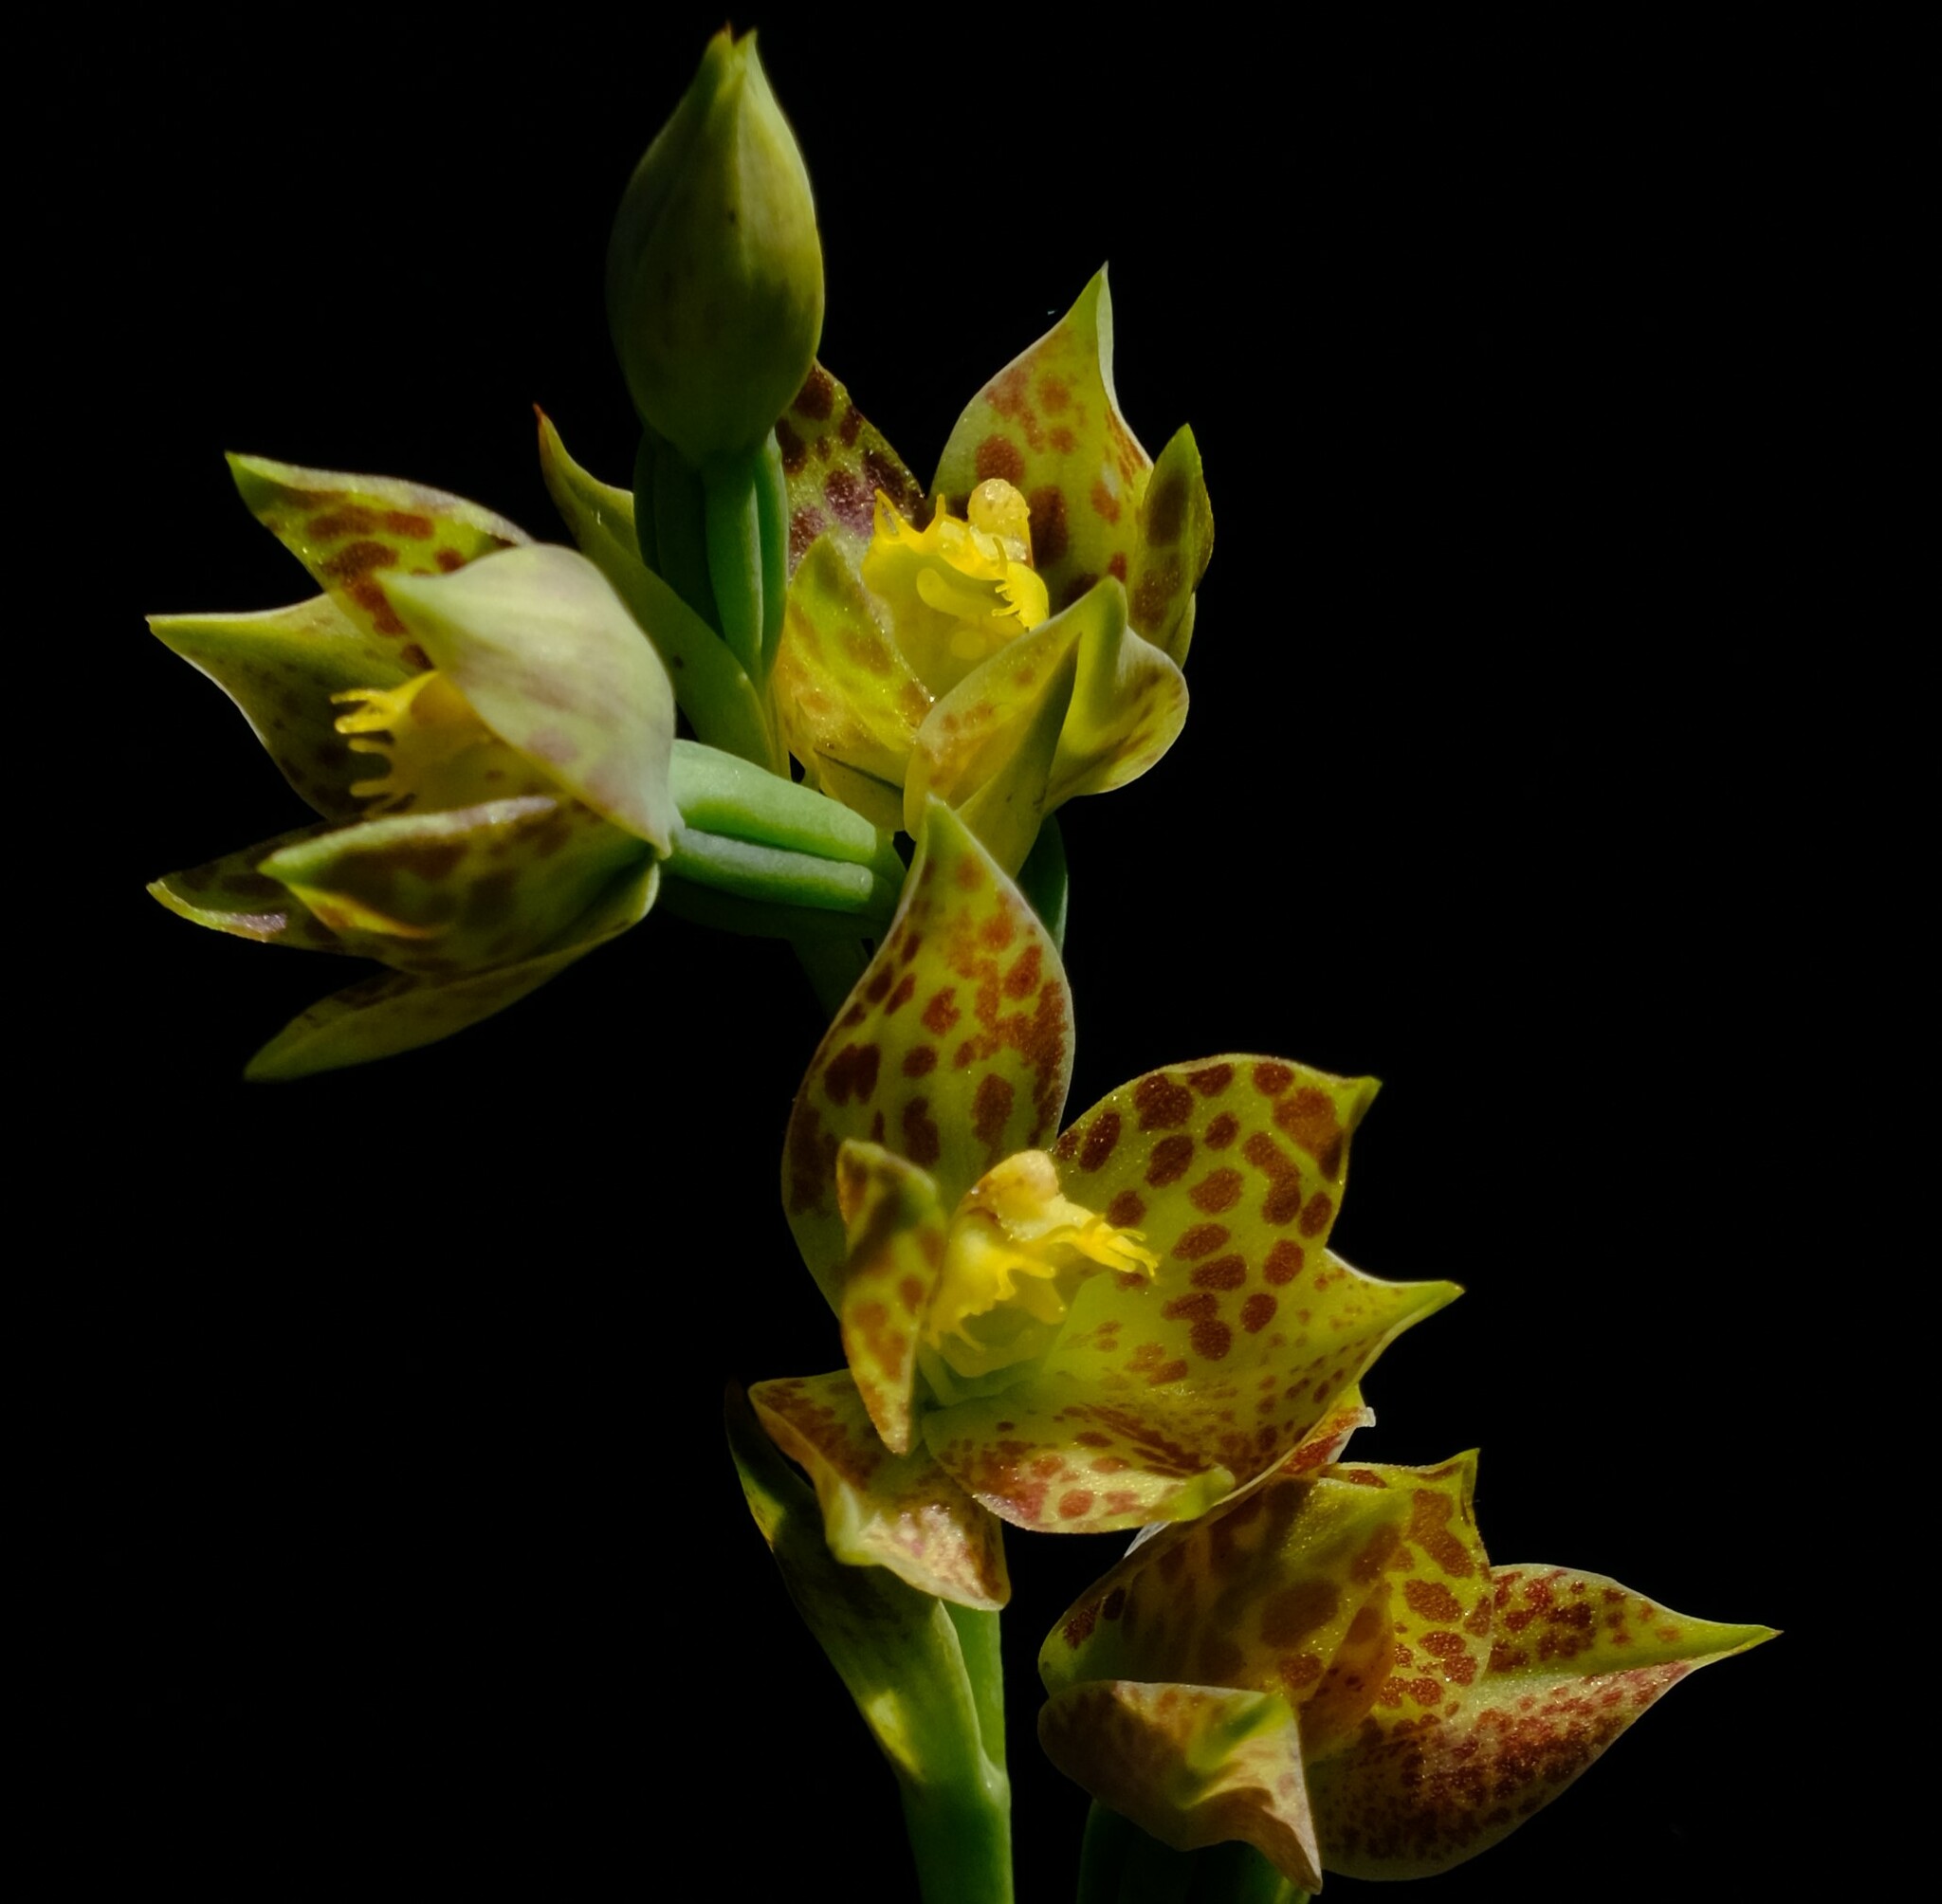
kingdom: Plantae
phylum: Tracheophyta
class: Liliopsida
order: Asparagales
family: Orchidaceae
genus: Thelymitra
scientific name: Thelymitra benthamiana
